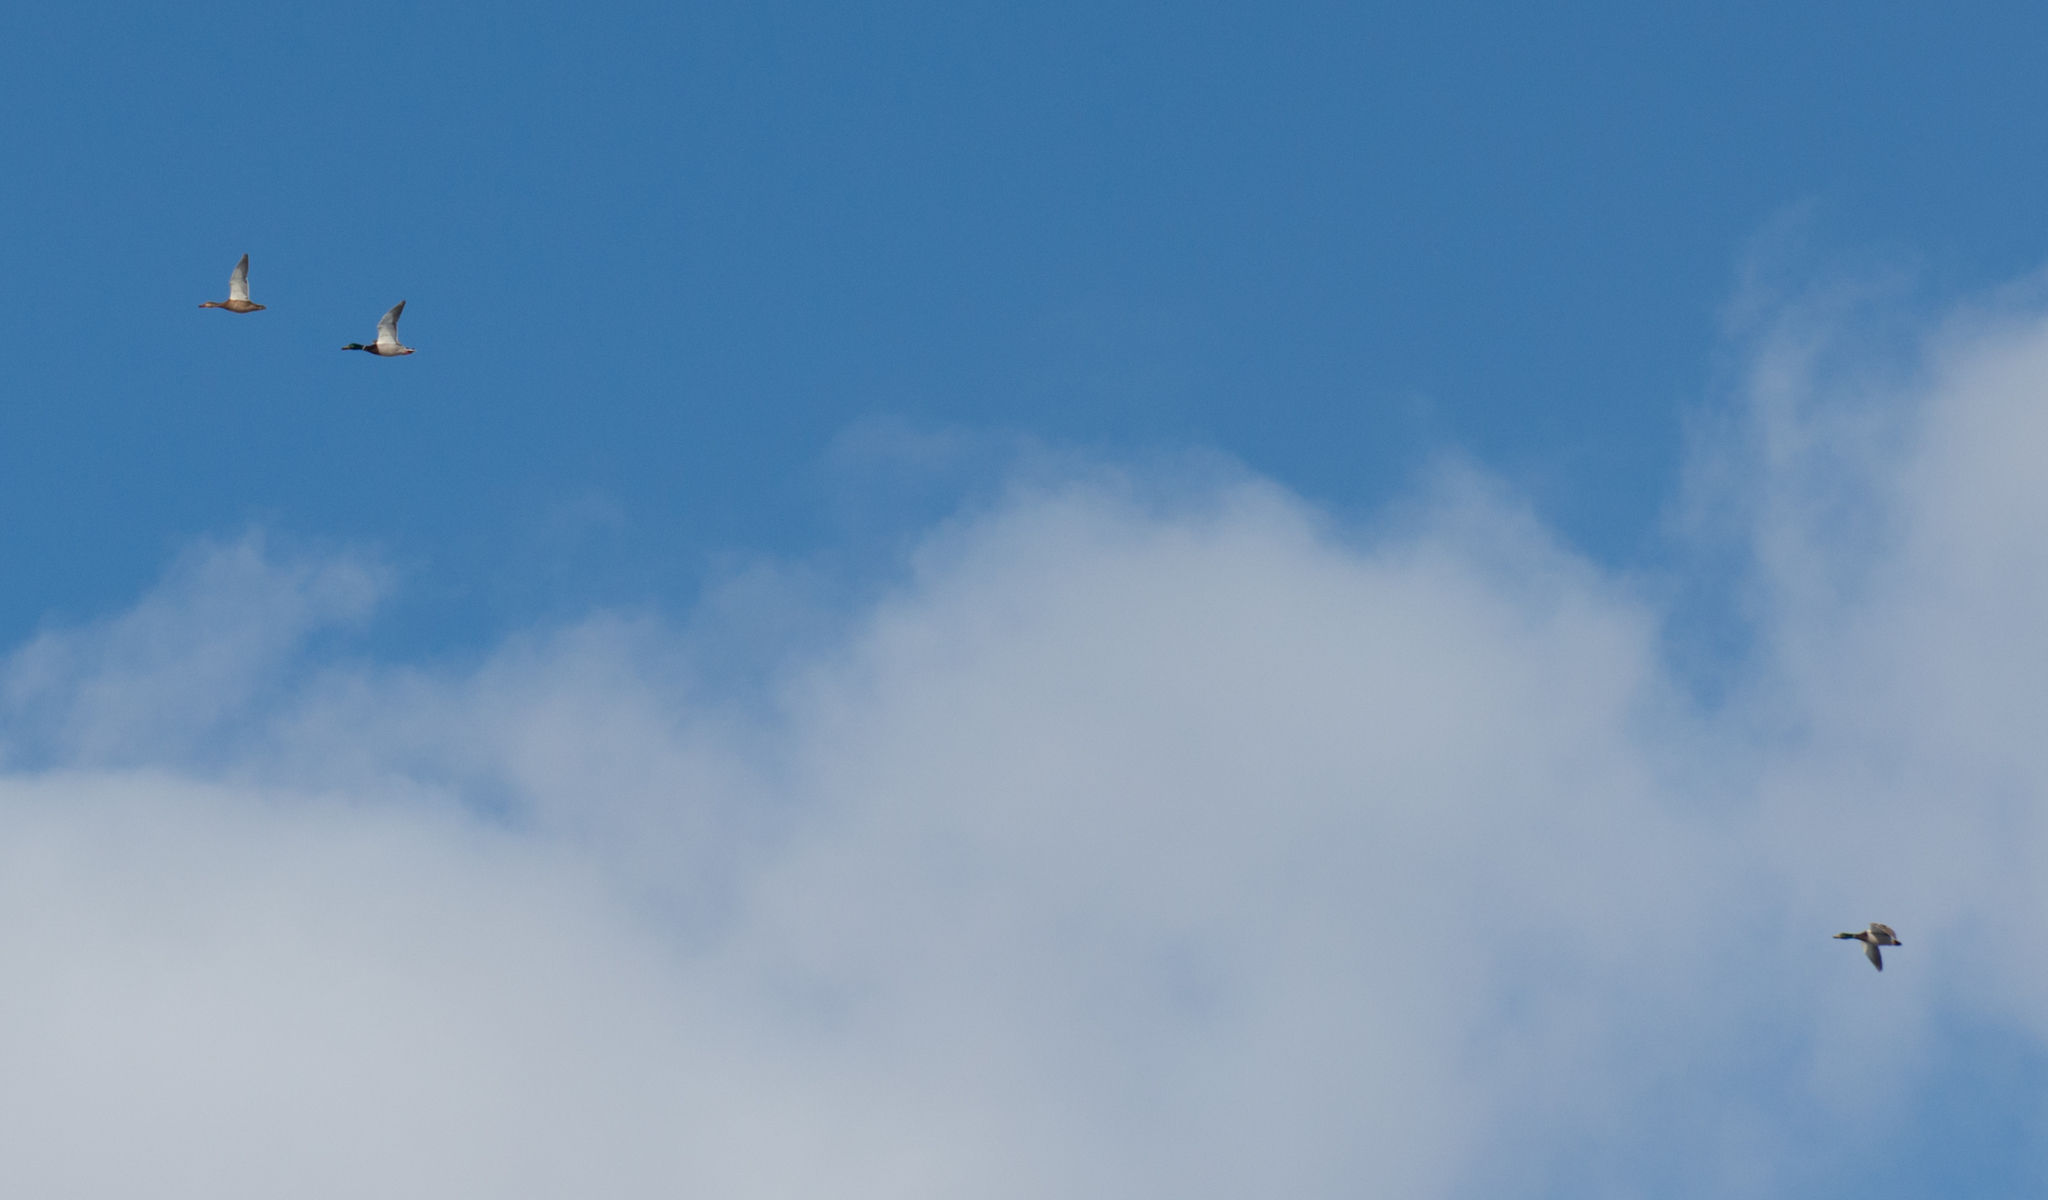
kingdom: Animalia
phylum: Chordata
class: Aves
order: Anseriformes
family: Anatidae
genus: Anas
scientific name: Anas platyrhynchos
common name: Mallard
